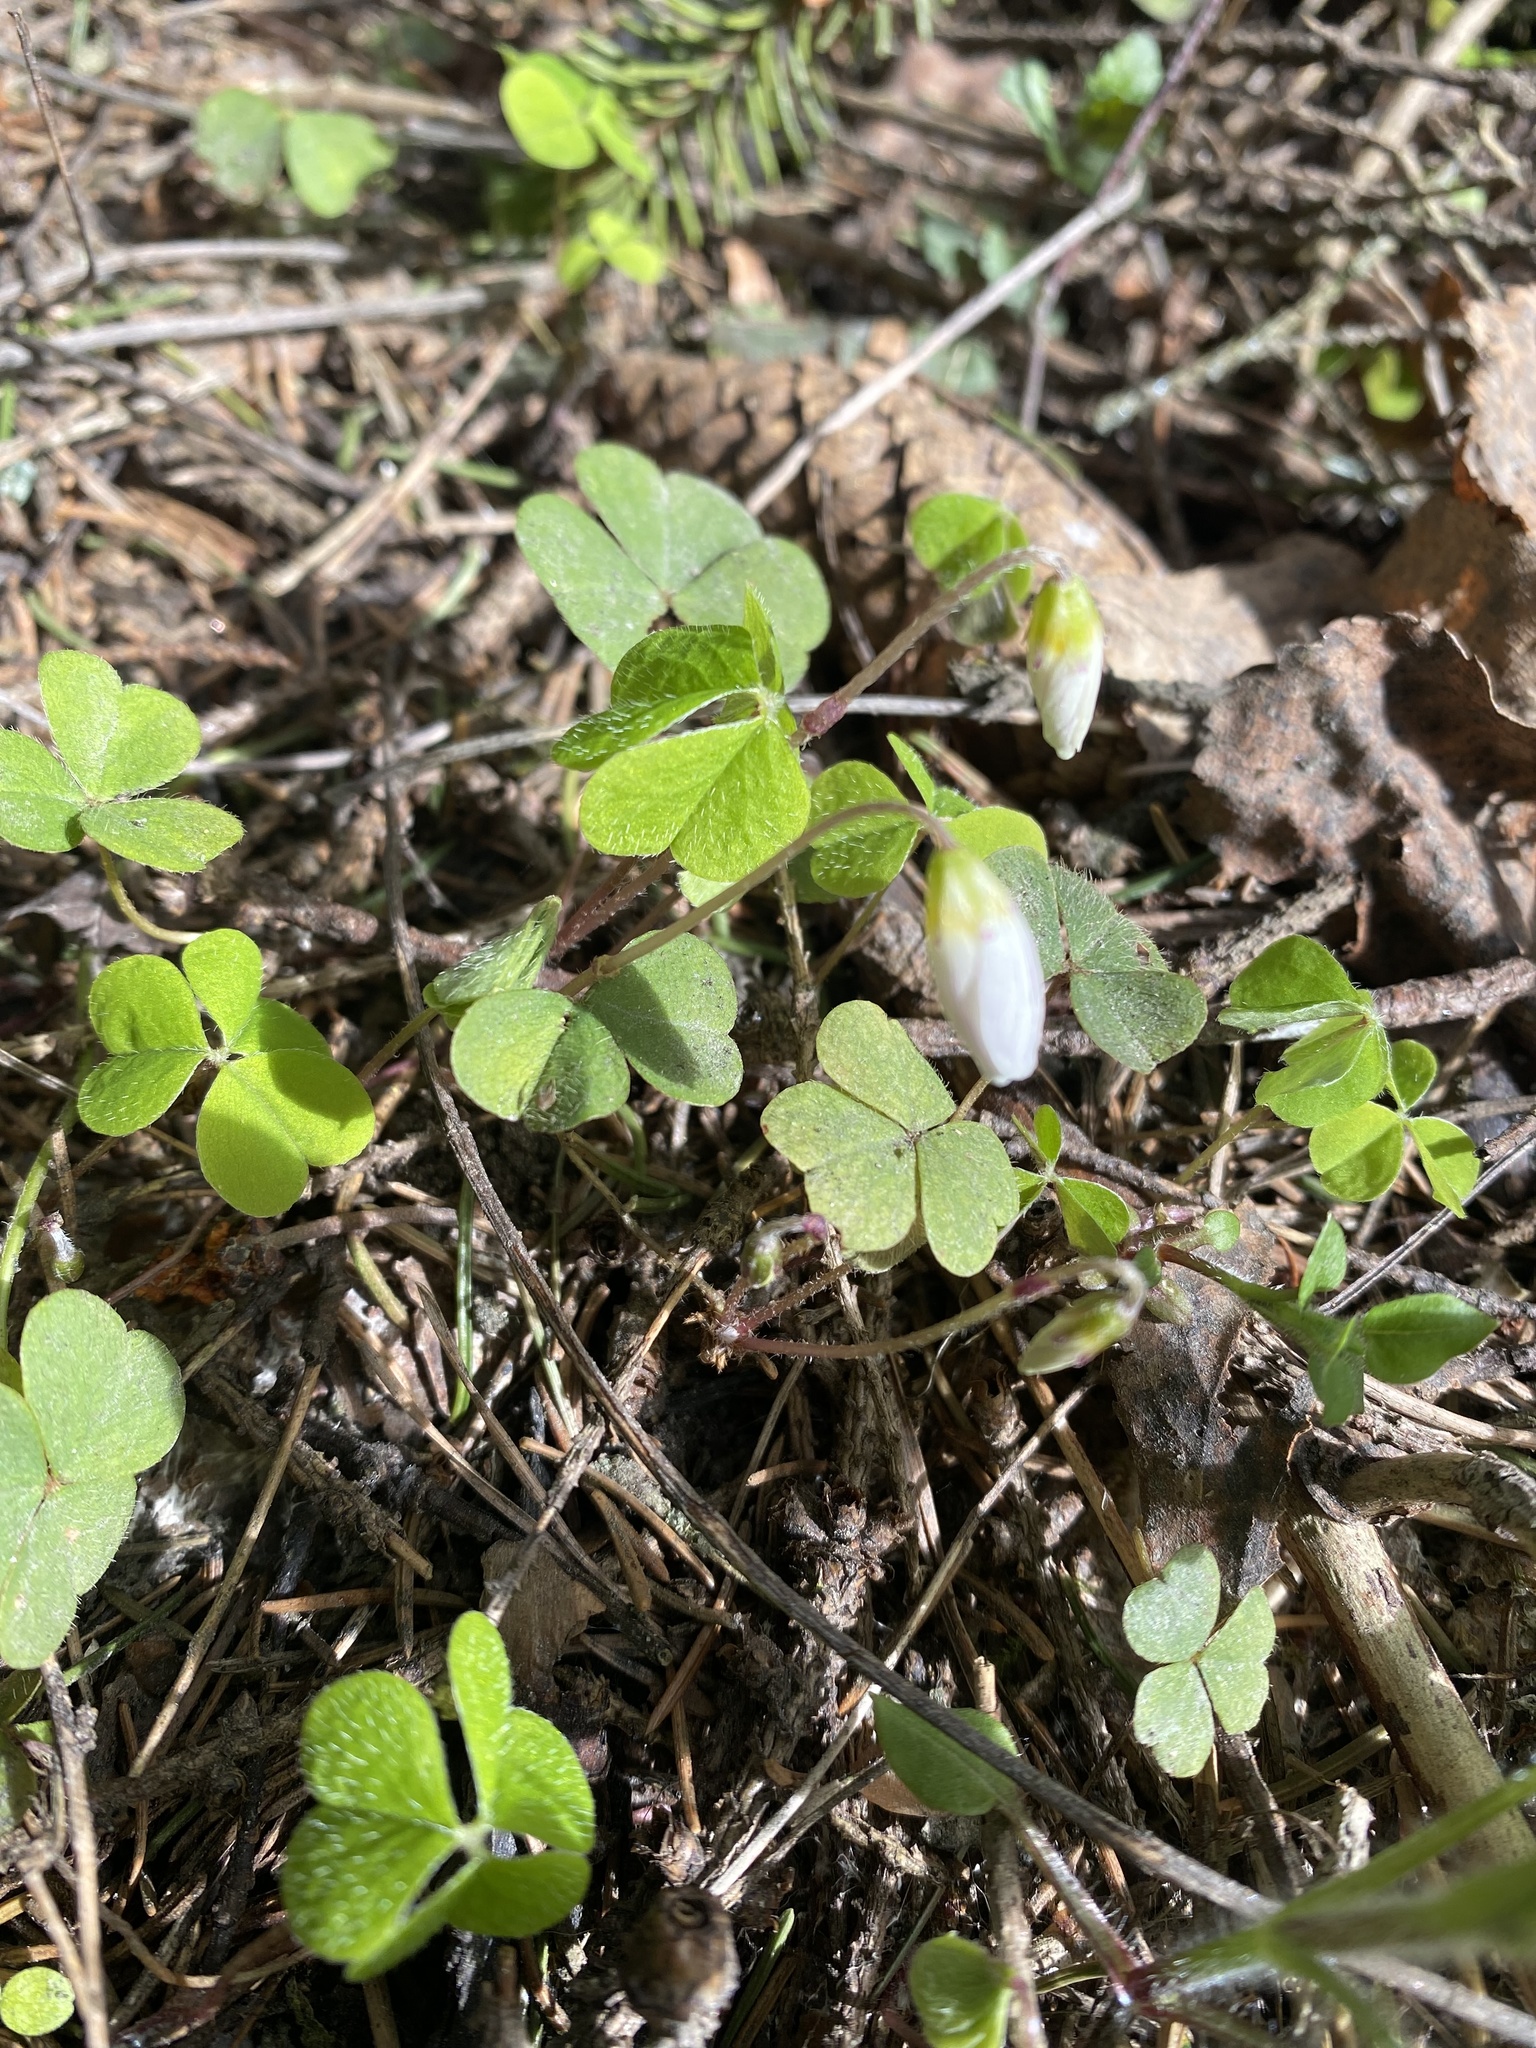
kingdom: Plantae
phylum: Tracheophyta
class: Magnoliopsida
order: Oxalidales
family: Oxalidaceae
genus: Oxalis
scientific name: Oxalis acetosella
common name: Wood-sorrel
